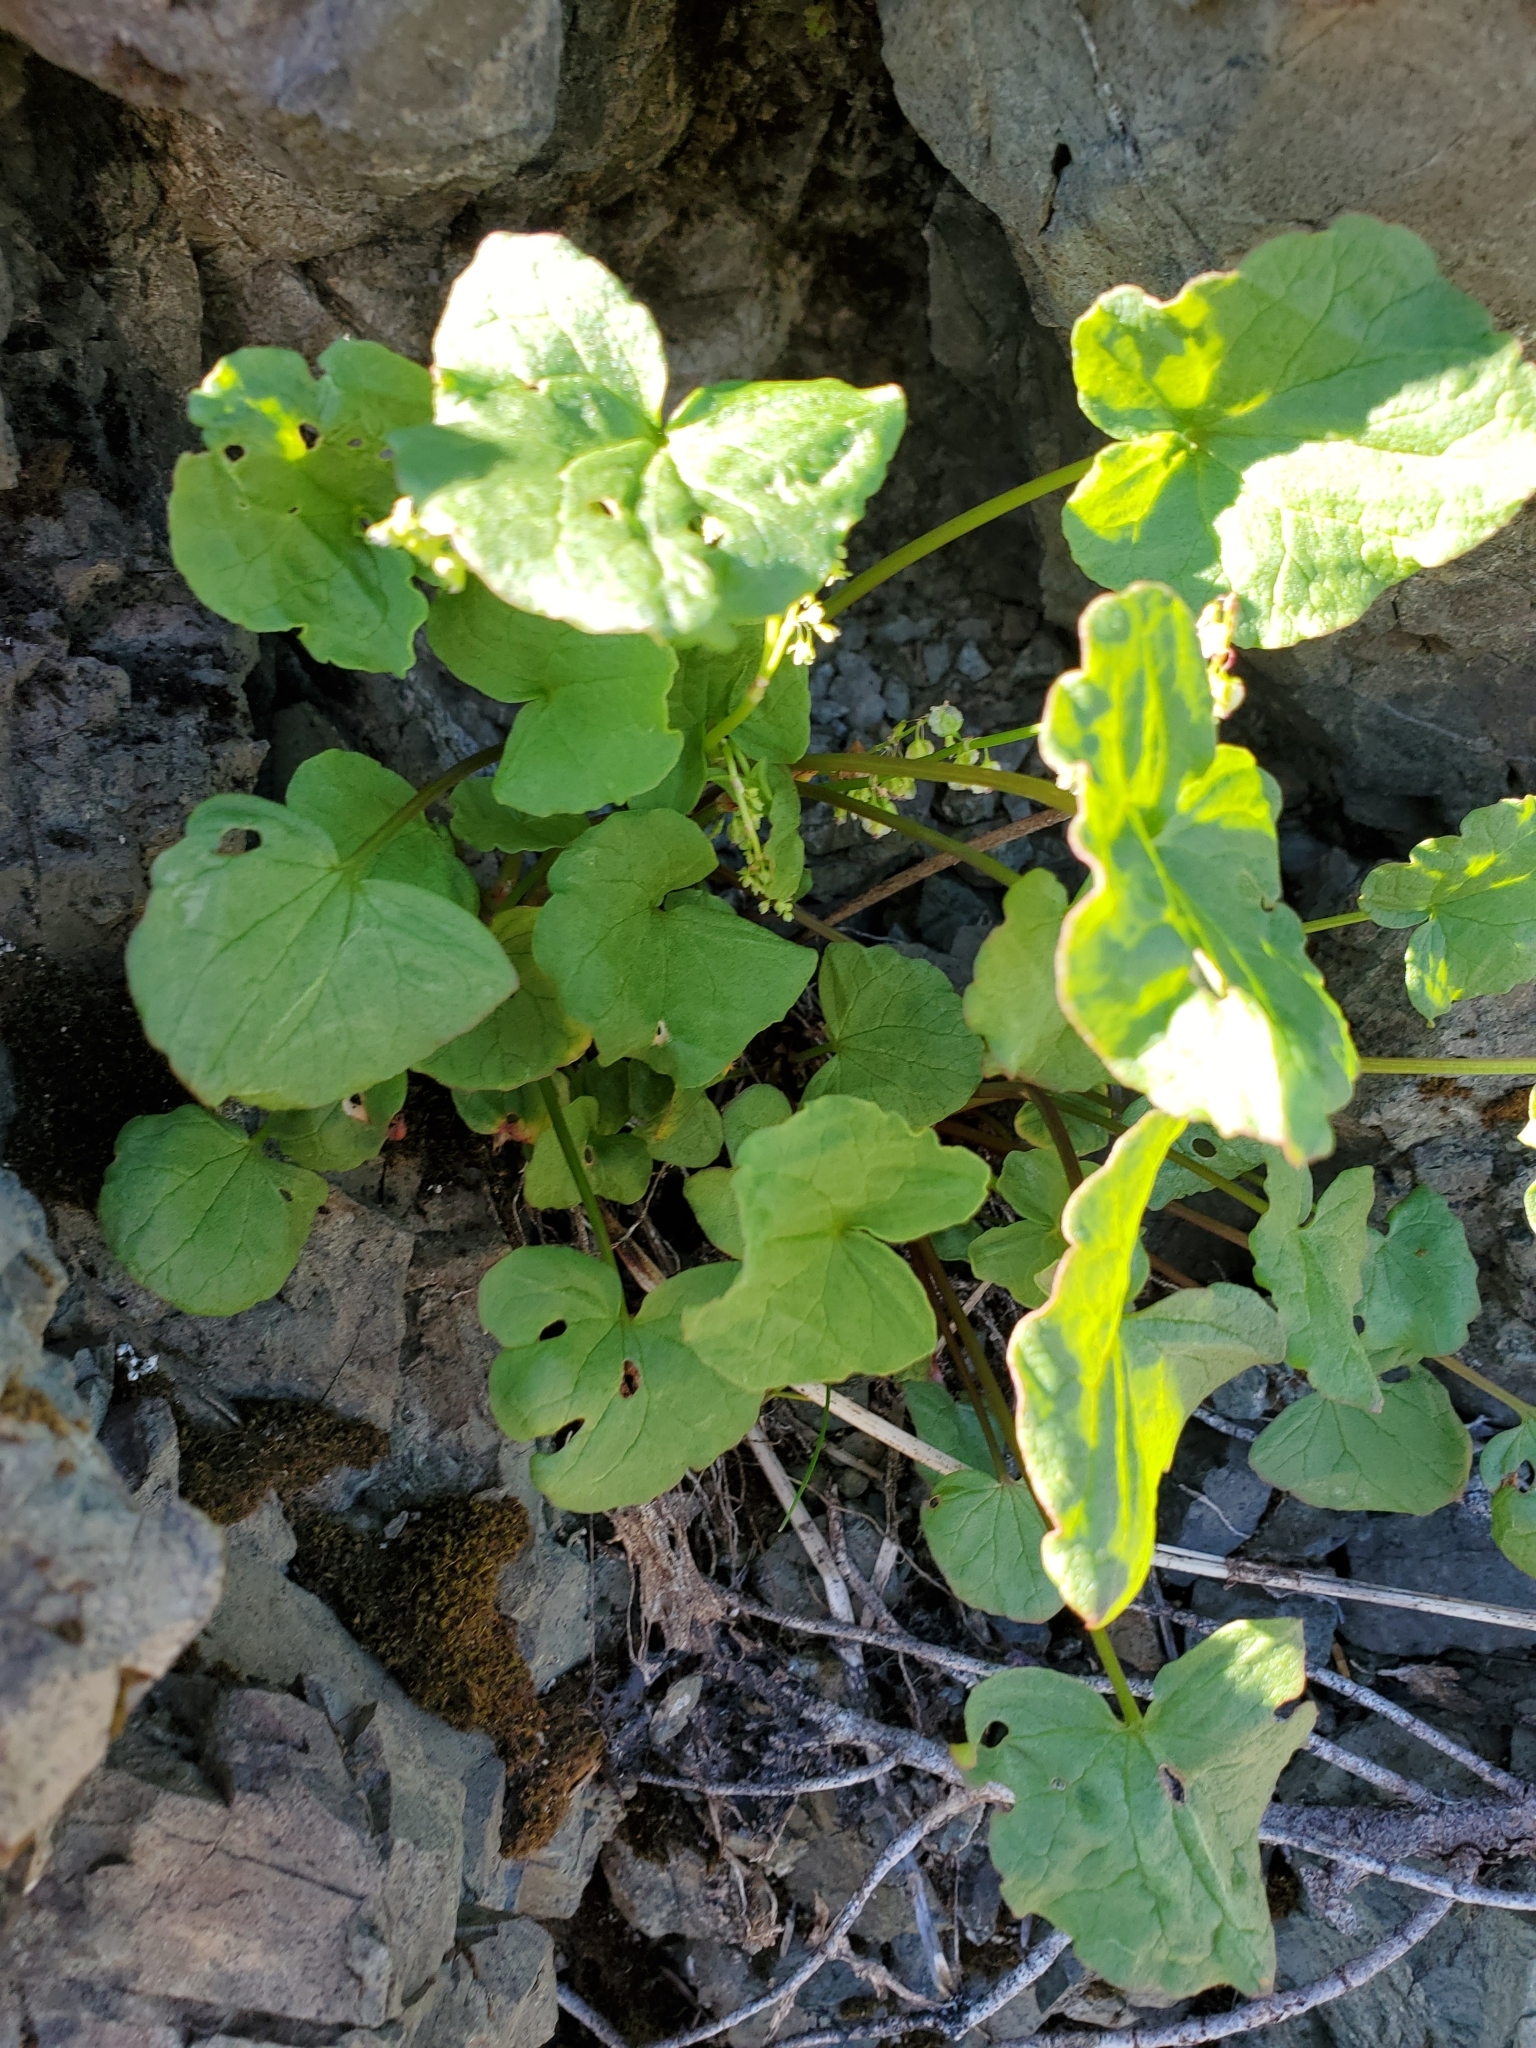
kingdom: Plantae
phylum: Tracheophyta
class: Magnoliopsida
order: Caryophyllales
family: Polygonaceae
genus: Oxyria
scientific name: Oxyria digyna
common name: Alpine mountain-sorrel
